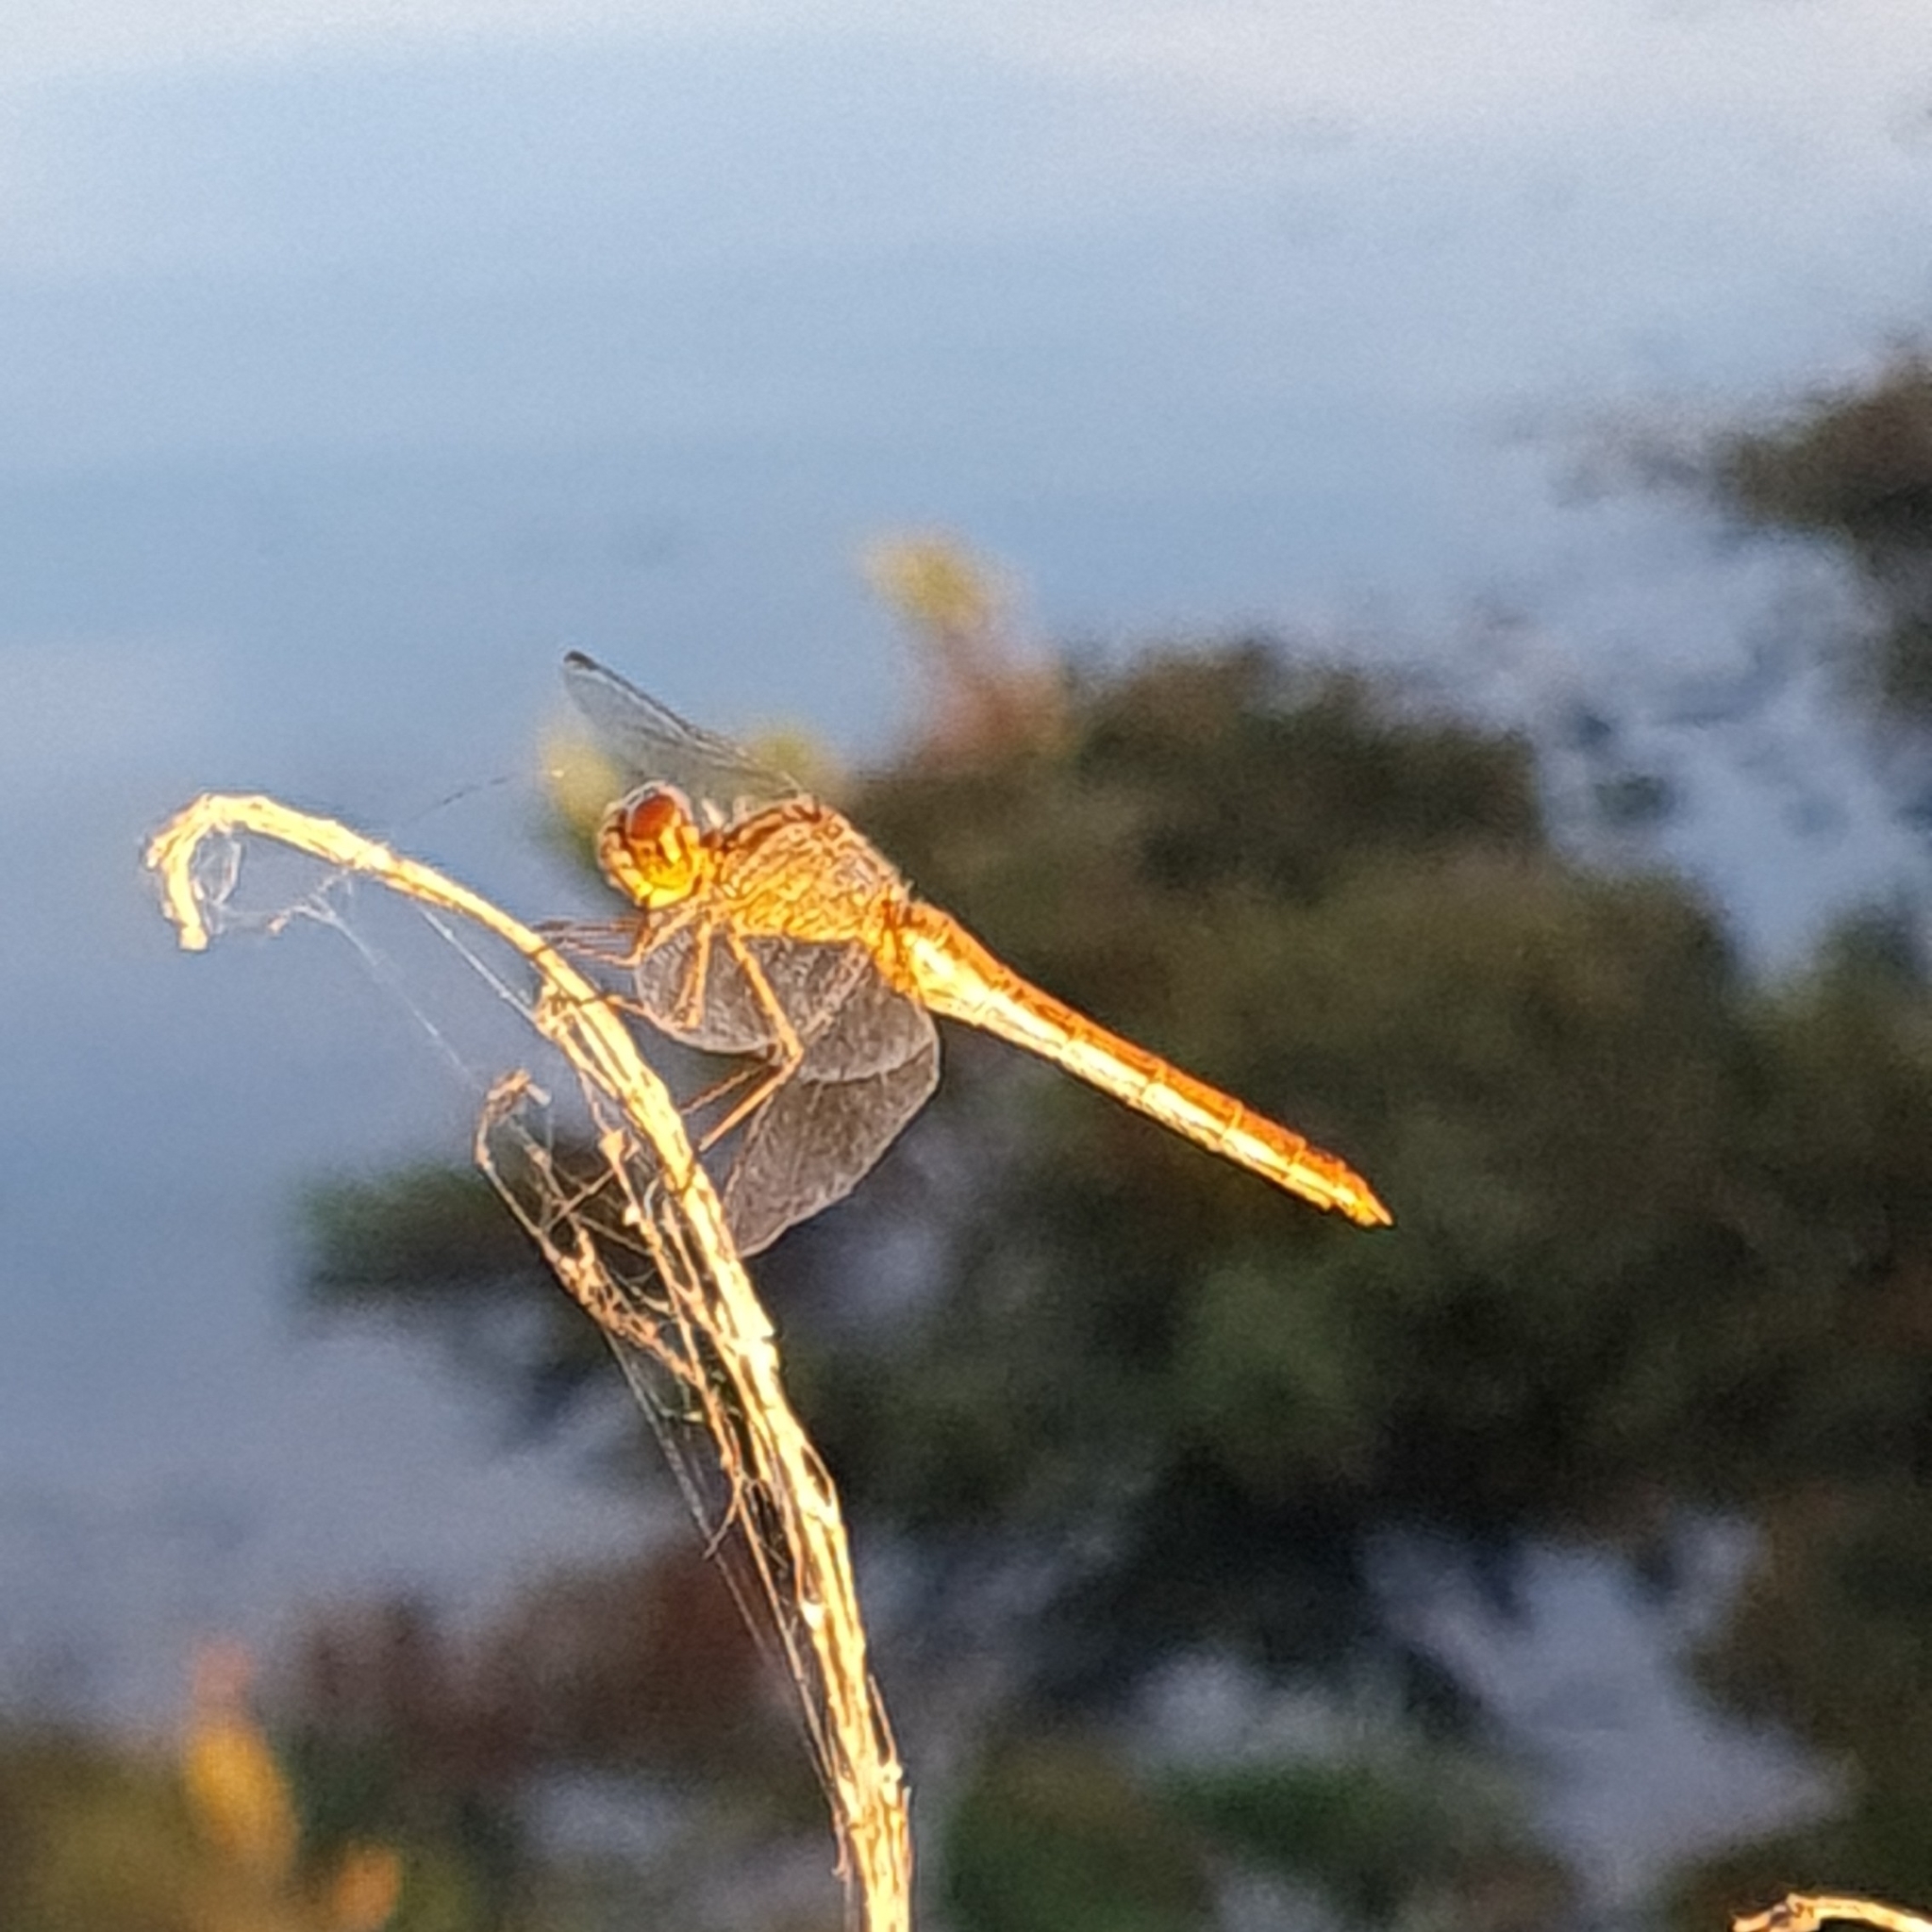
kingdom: Animalia
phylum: Arthropoda
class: Insecta
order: Odonata
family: Libellulidae
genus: Sympetrum
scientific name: Sympetrum meridionale
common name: Southern darter
